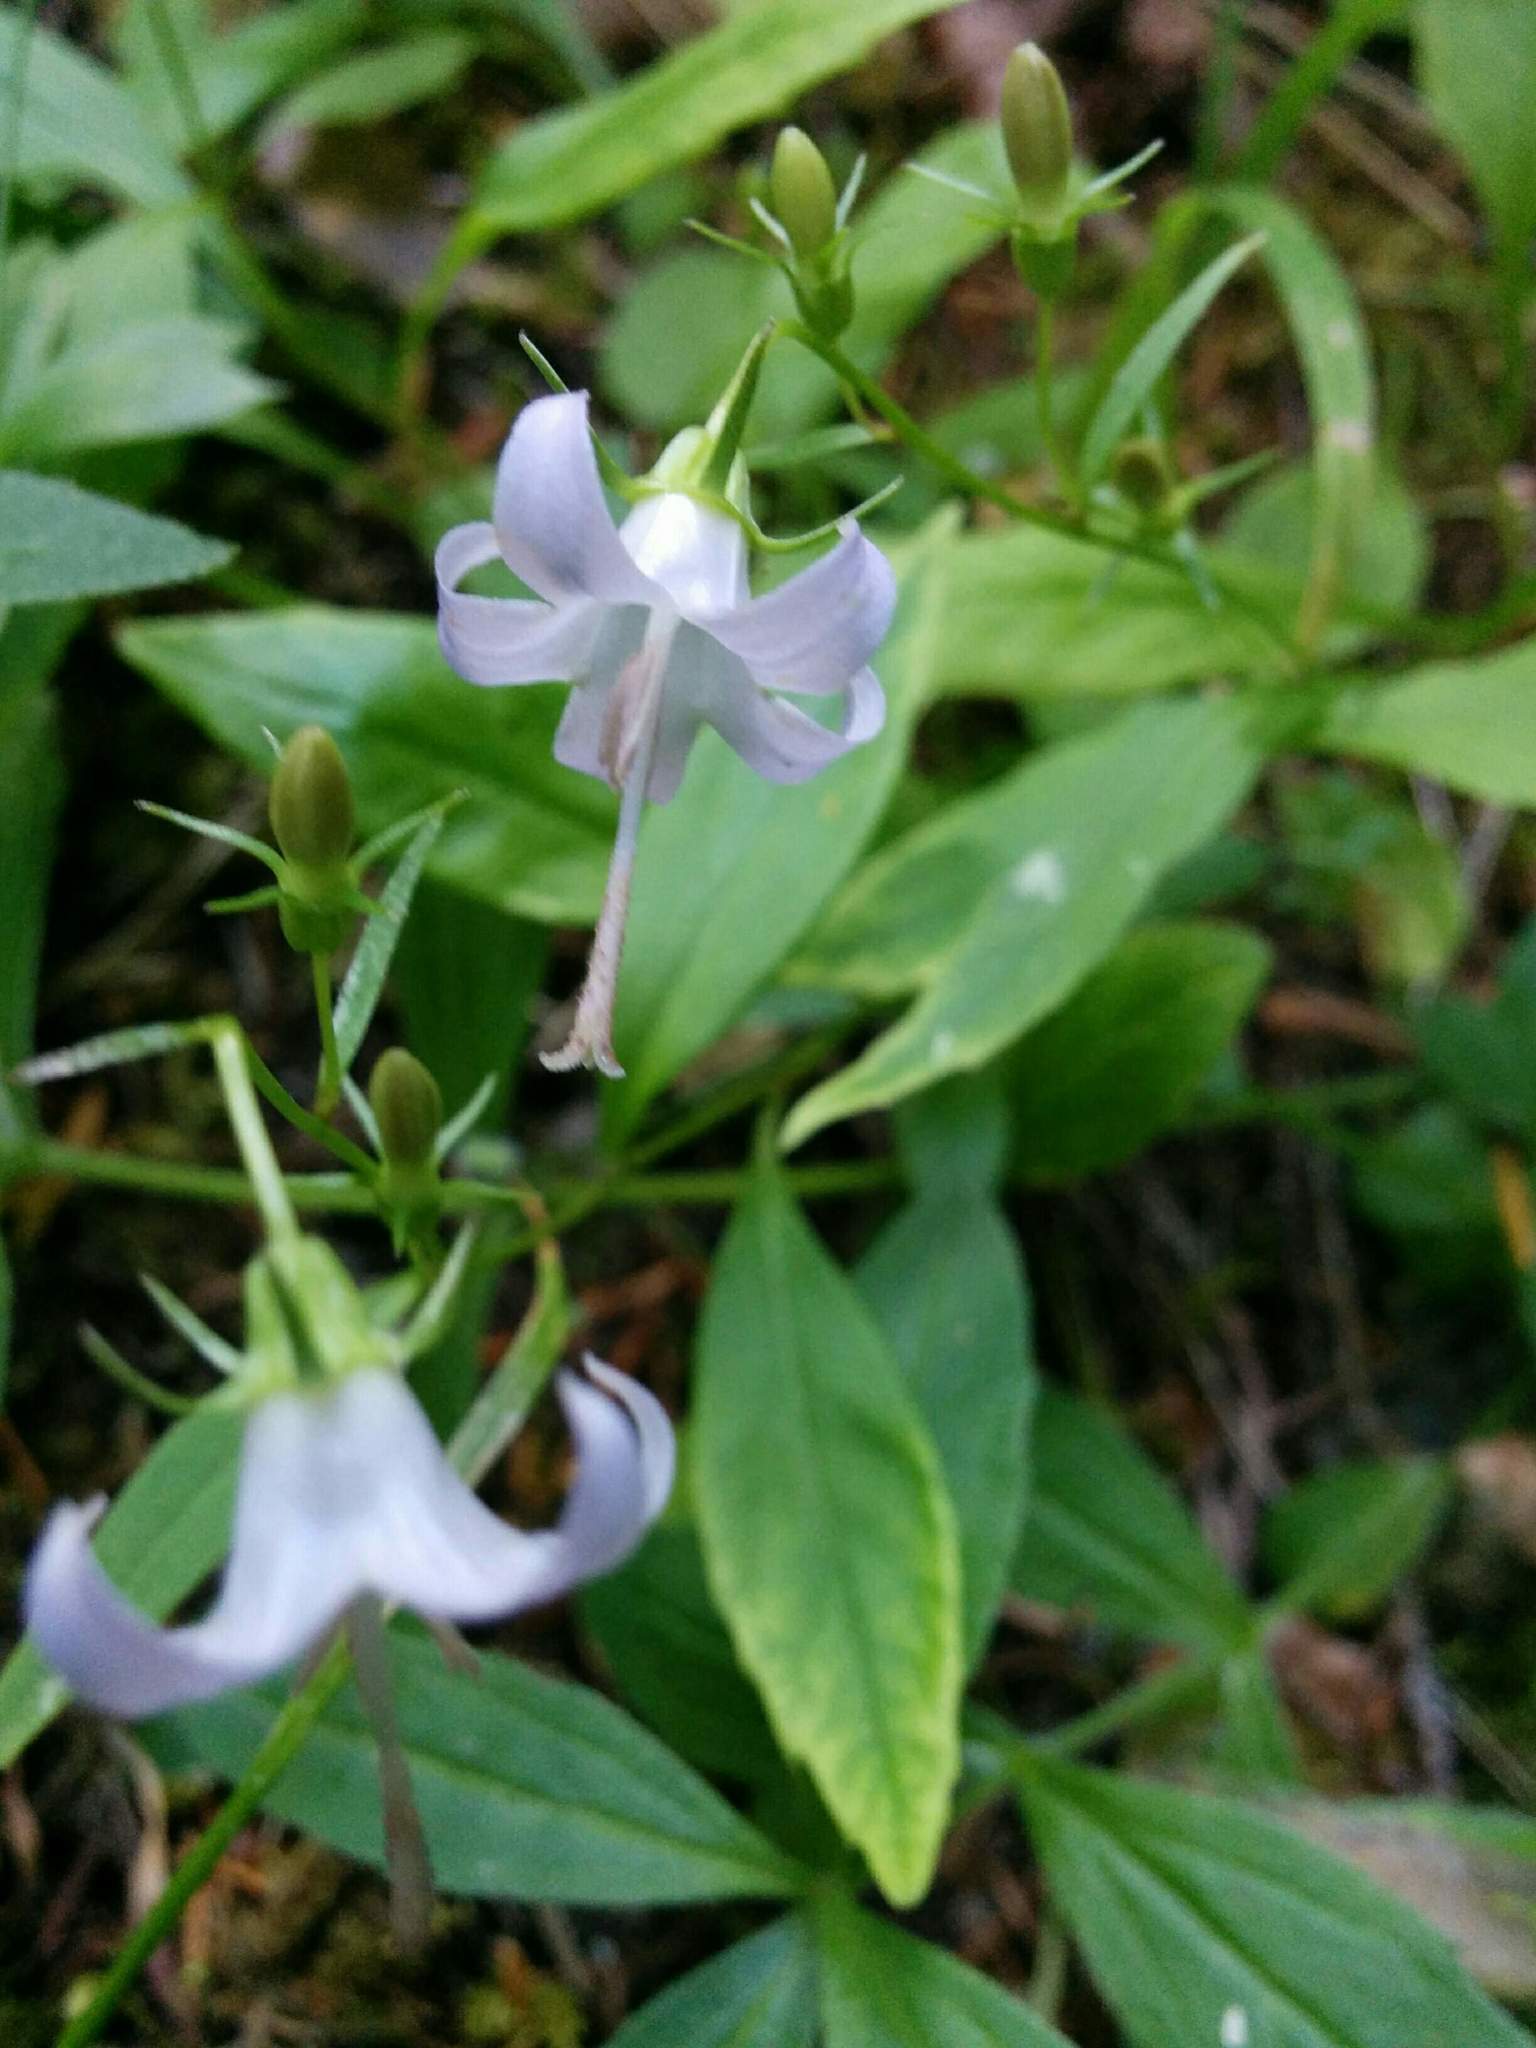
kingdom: Plantae
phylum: Tracheophyta
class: Magnoliopsida
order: Asterales
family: Campanulaceae
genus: Campanula
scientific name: Campanula scouleri
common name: Scouler's harebell
